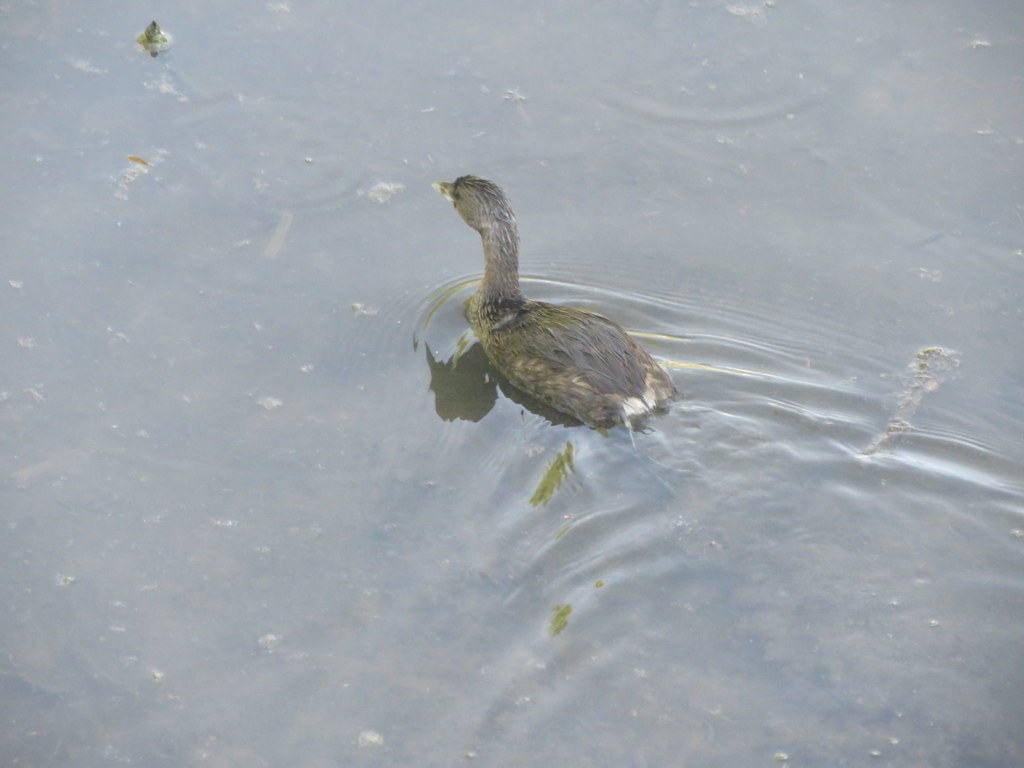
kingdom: Animalia
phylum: Chordata
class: Aves
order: Podicipediformes
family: Podicipedidae
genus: Podilymbus
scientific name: Podilymbus podiceps
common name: Pied-billed grebe
